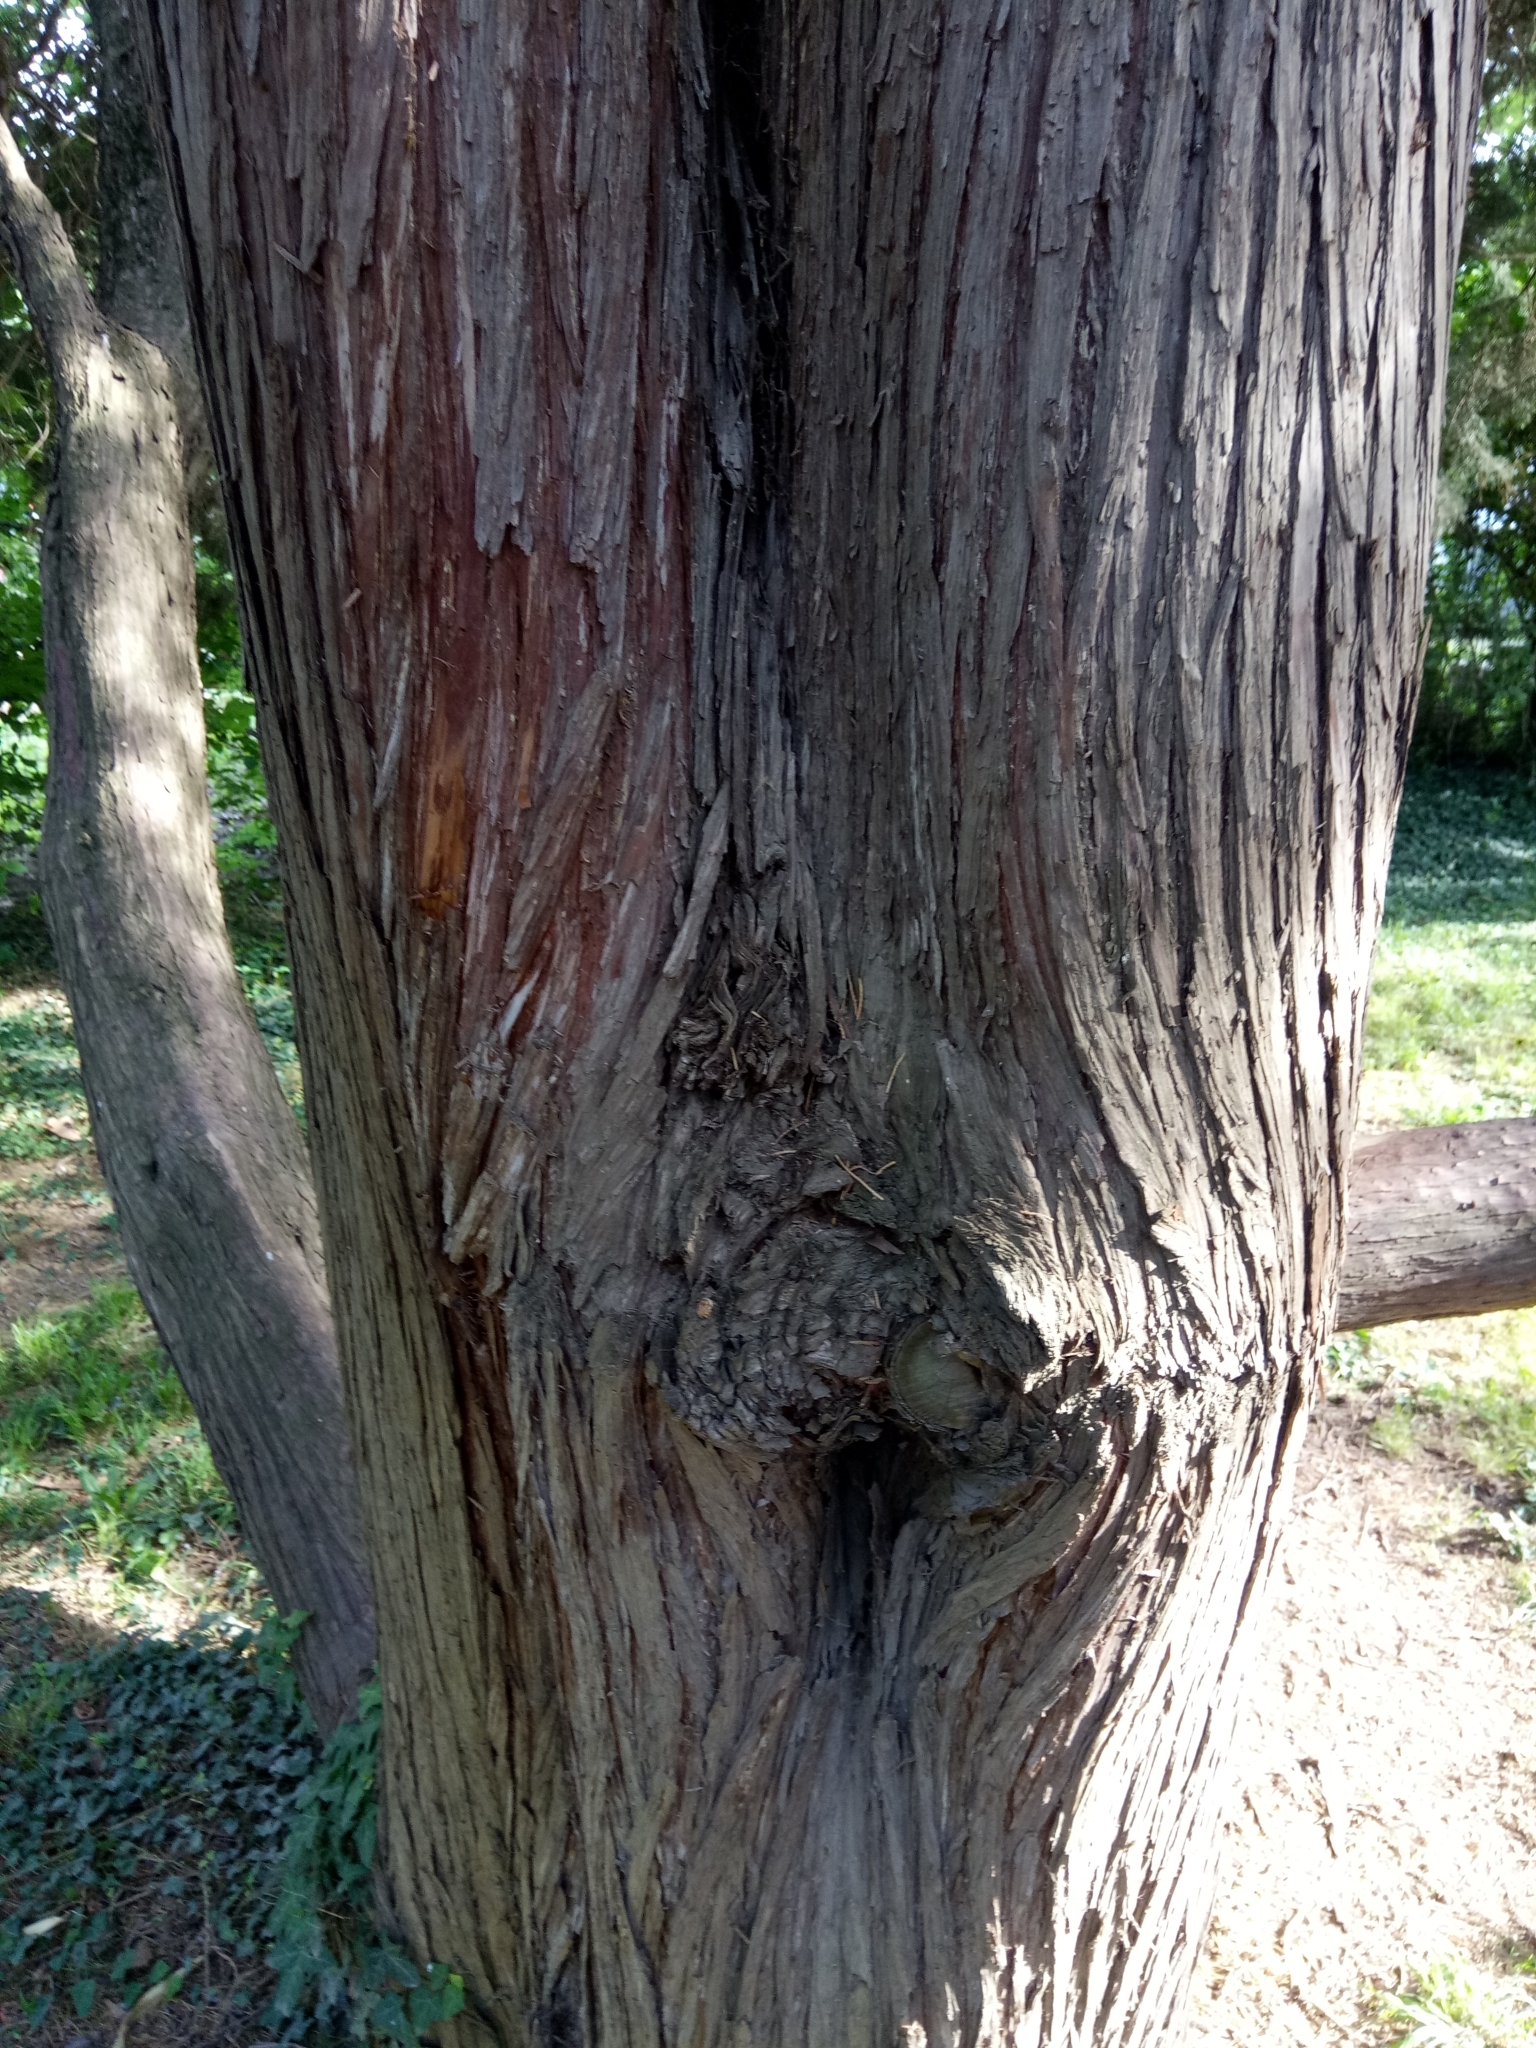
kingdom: Plantae
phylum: Tracheophyta
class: Pinopsida
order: Pinales
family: Cupressaceae
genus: Juniperus
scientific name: Juniperus chinensis
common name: Chinese juniper
